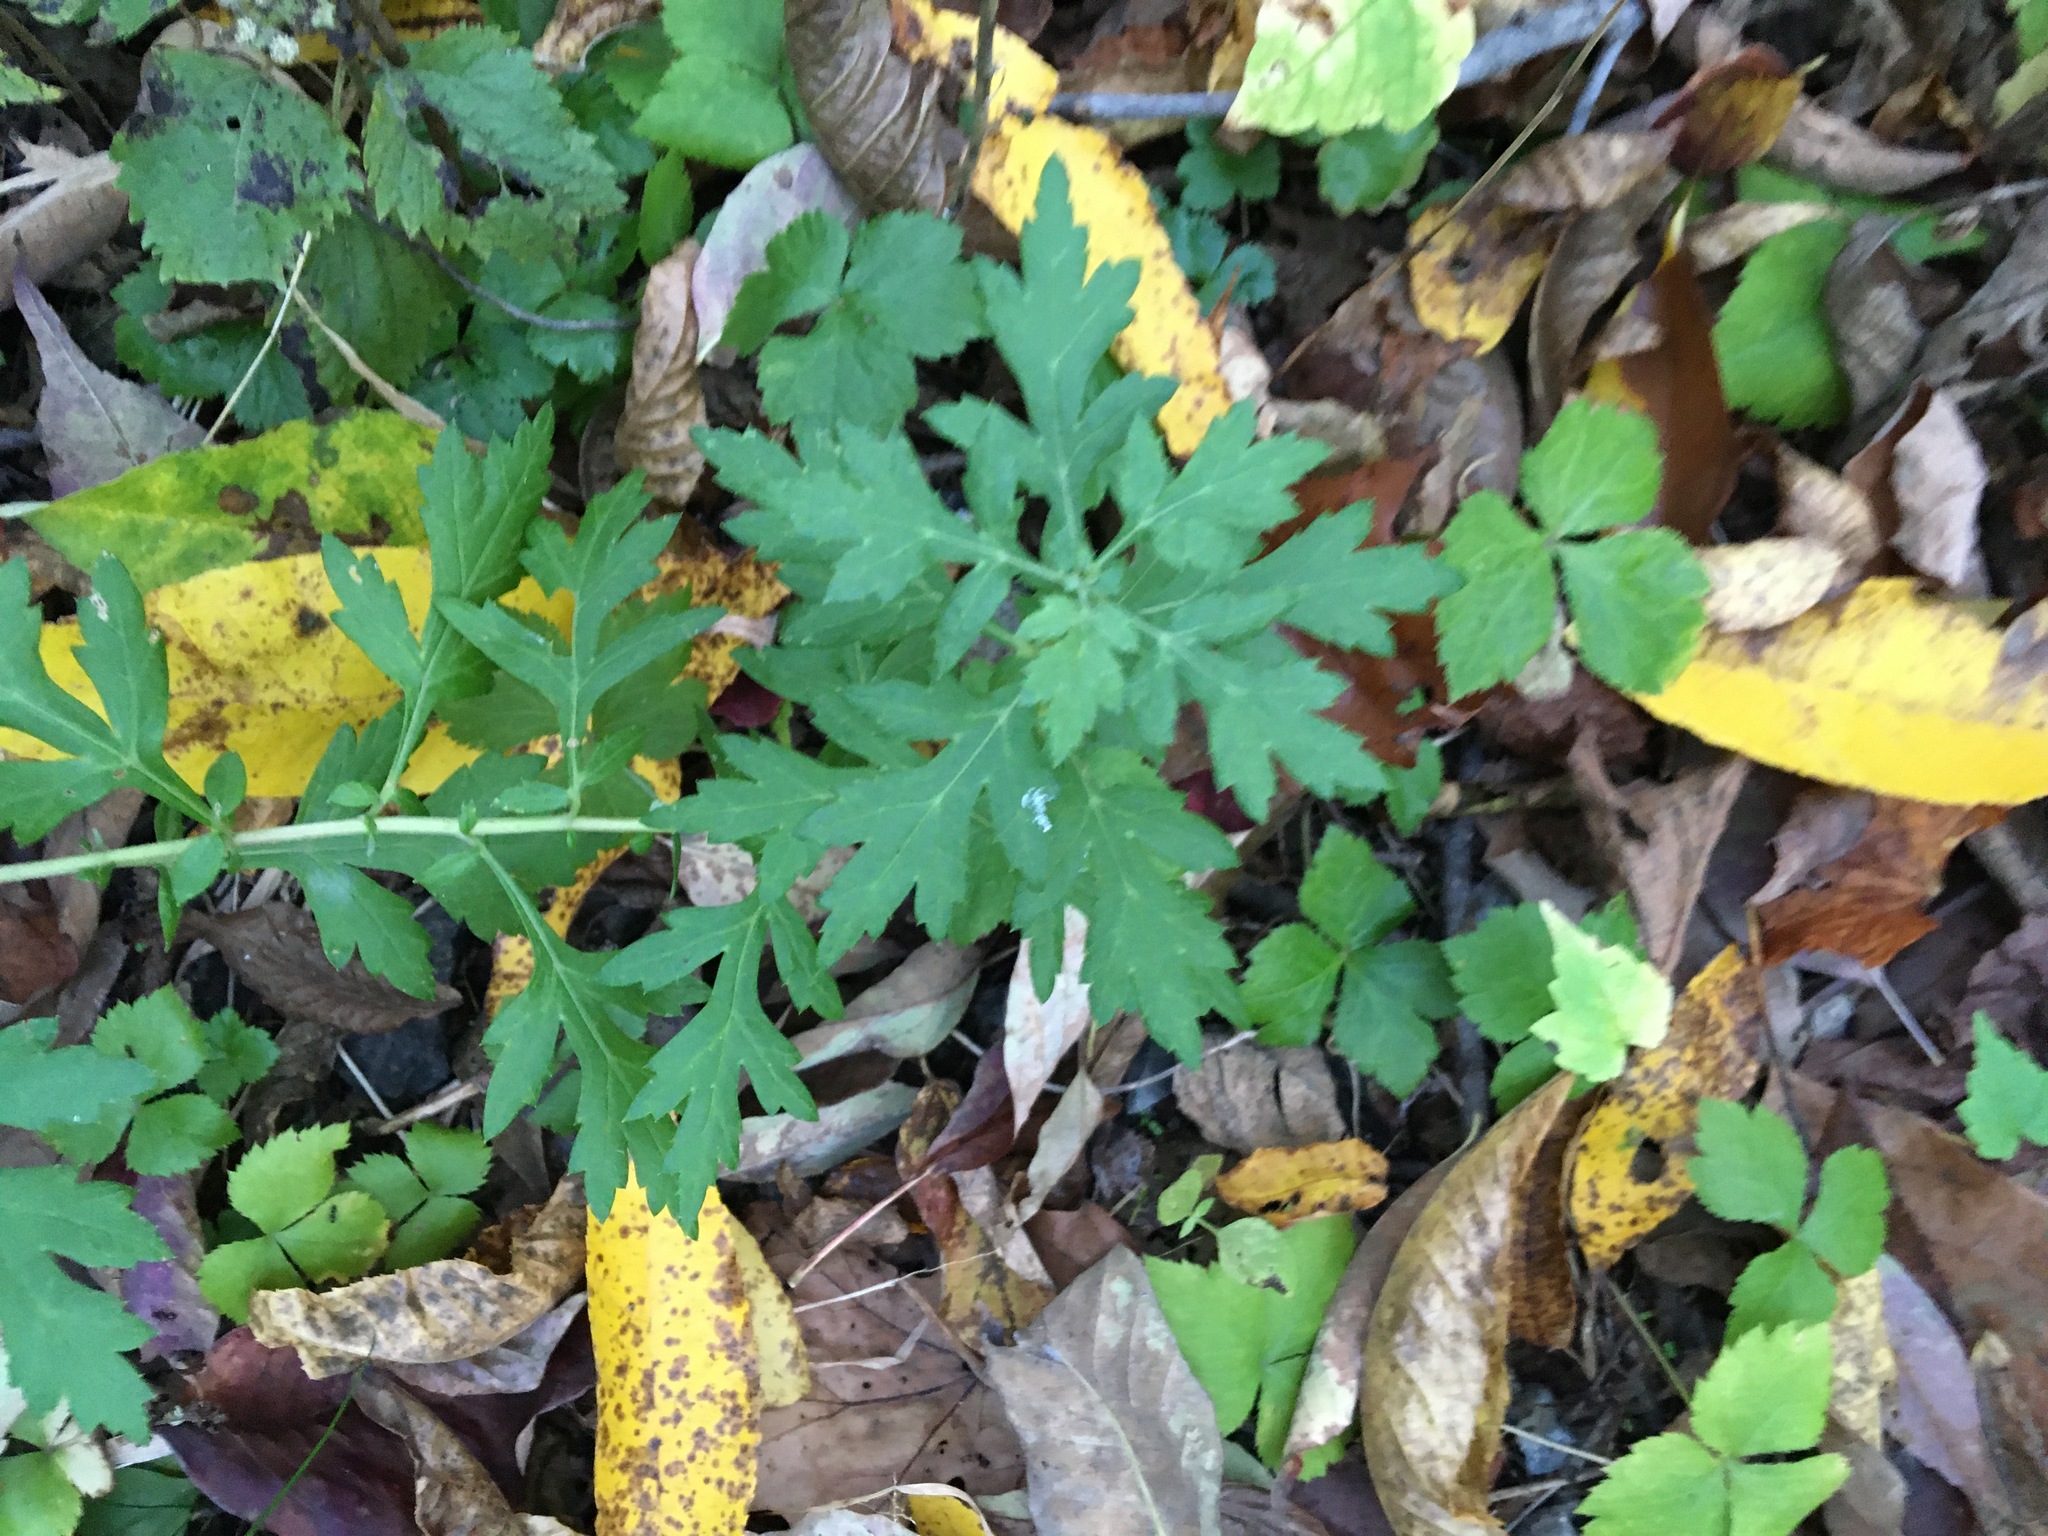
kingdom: Plantae
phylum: Tracheophyta
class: Magnoliopsida
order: Asterales
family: Asteraceae
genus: Artemisia
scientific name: Artemisia vulgaris
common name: Mugwort
